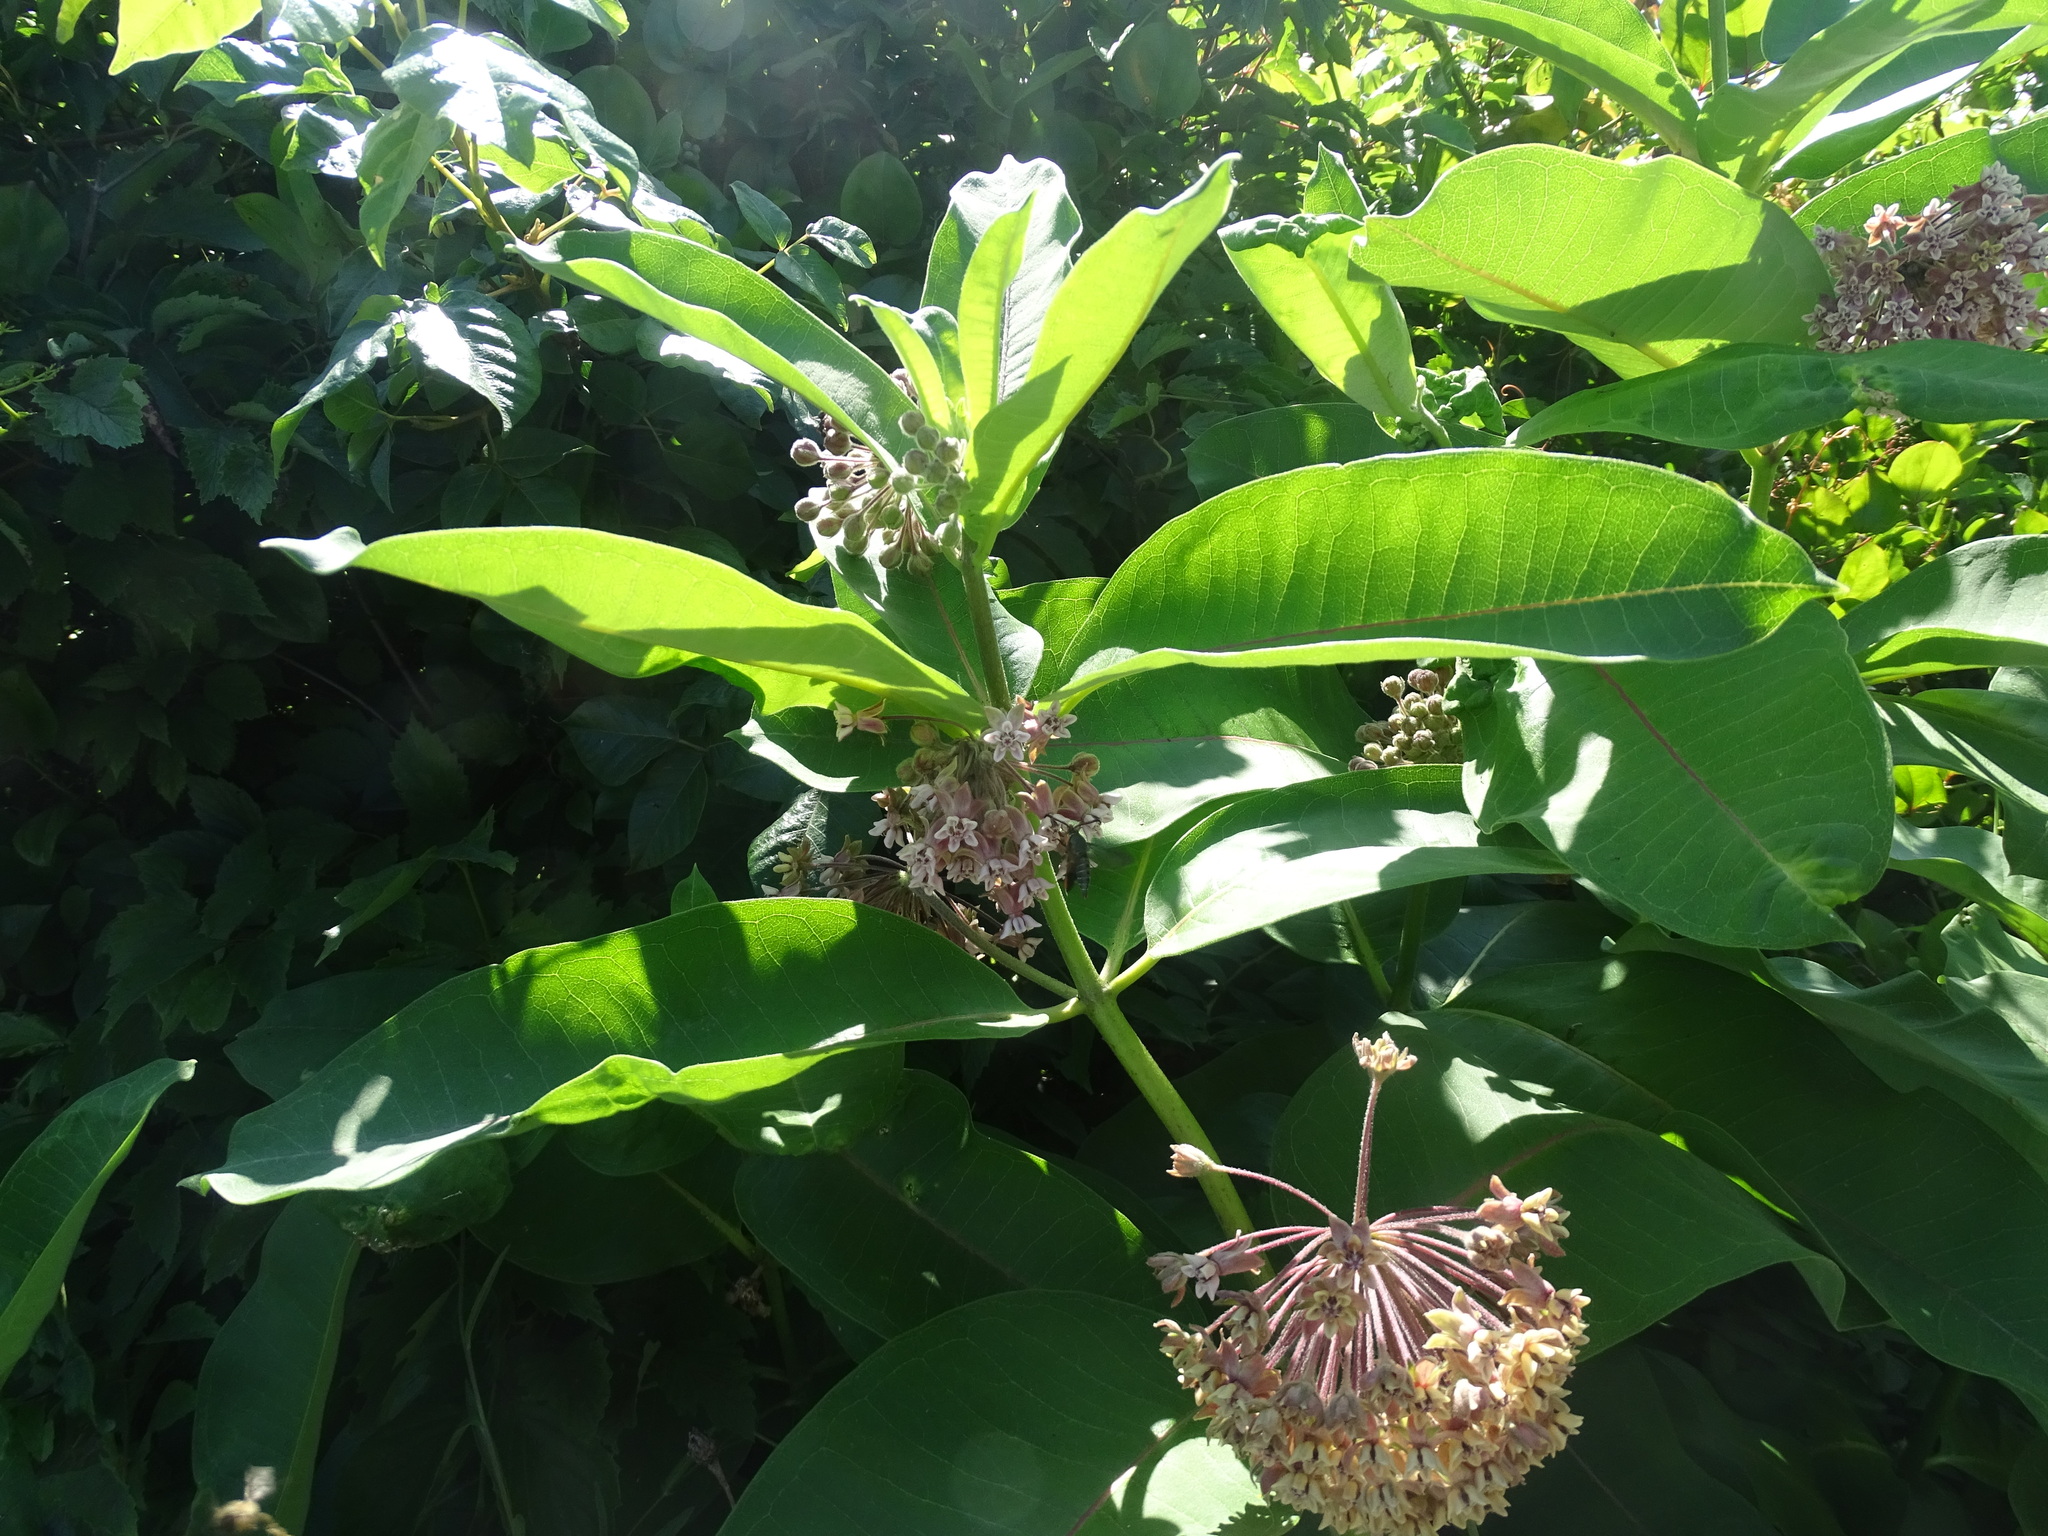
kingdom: Plantae
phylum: Tracheophyta
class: Magnoliopsida
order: Gentianales
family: Apocynaceae
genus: Asclepias
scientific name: Asclepias syriaca
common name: Common milkweed
